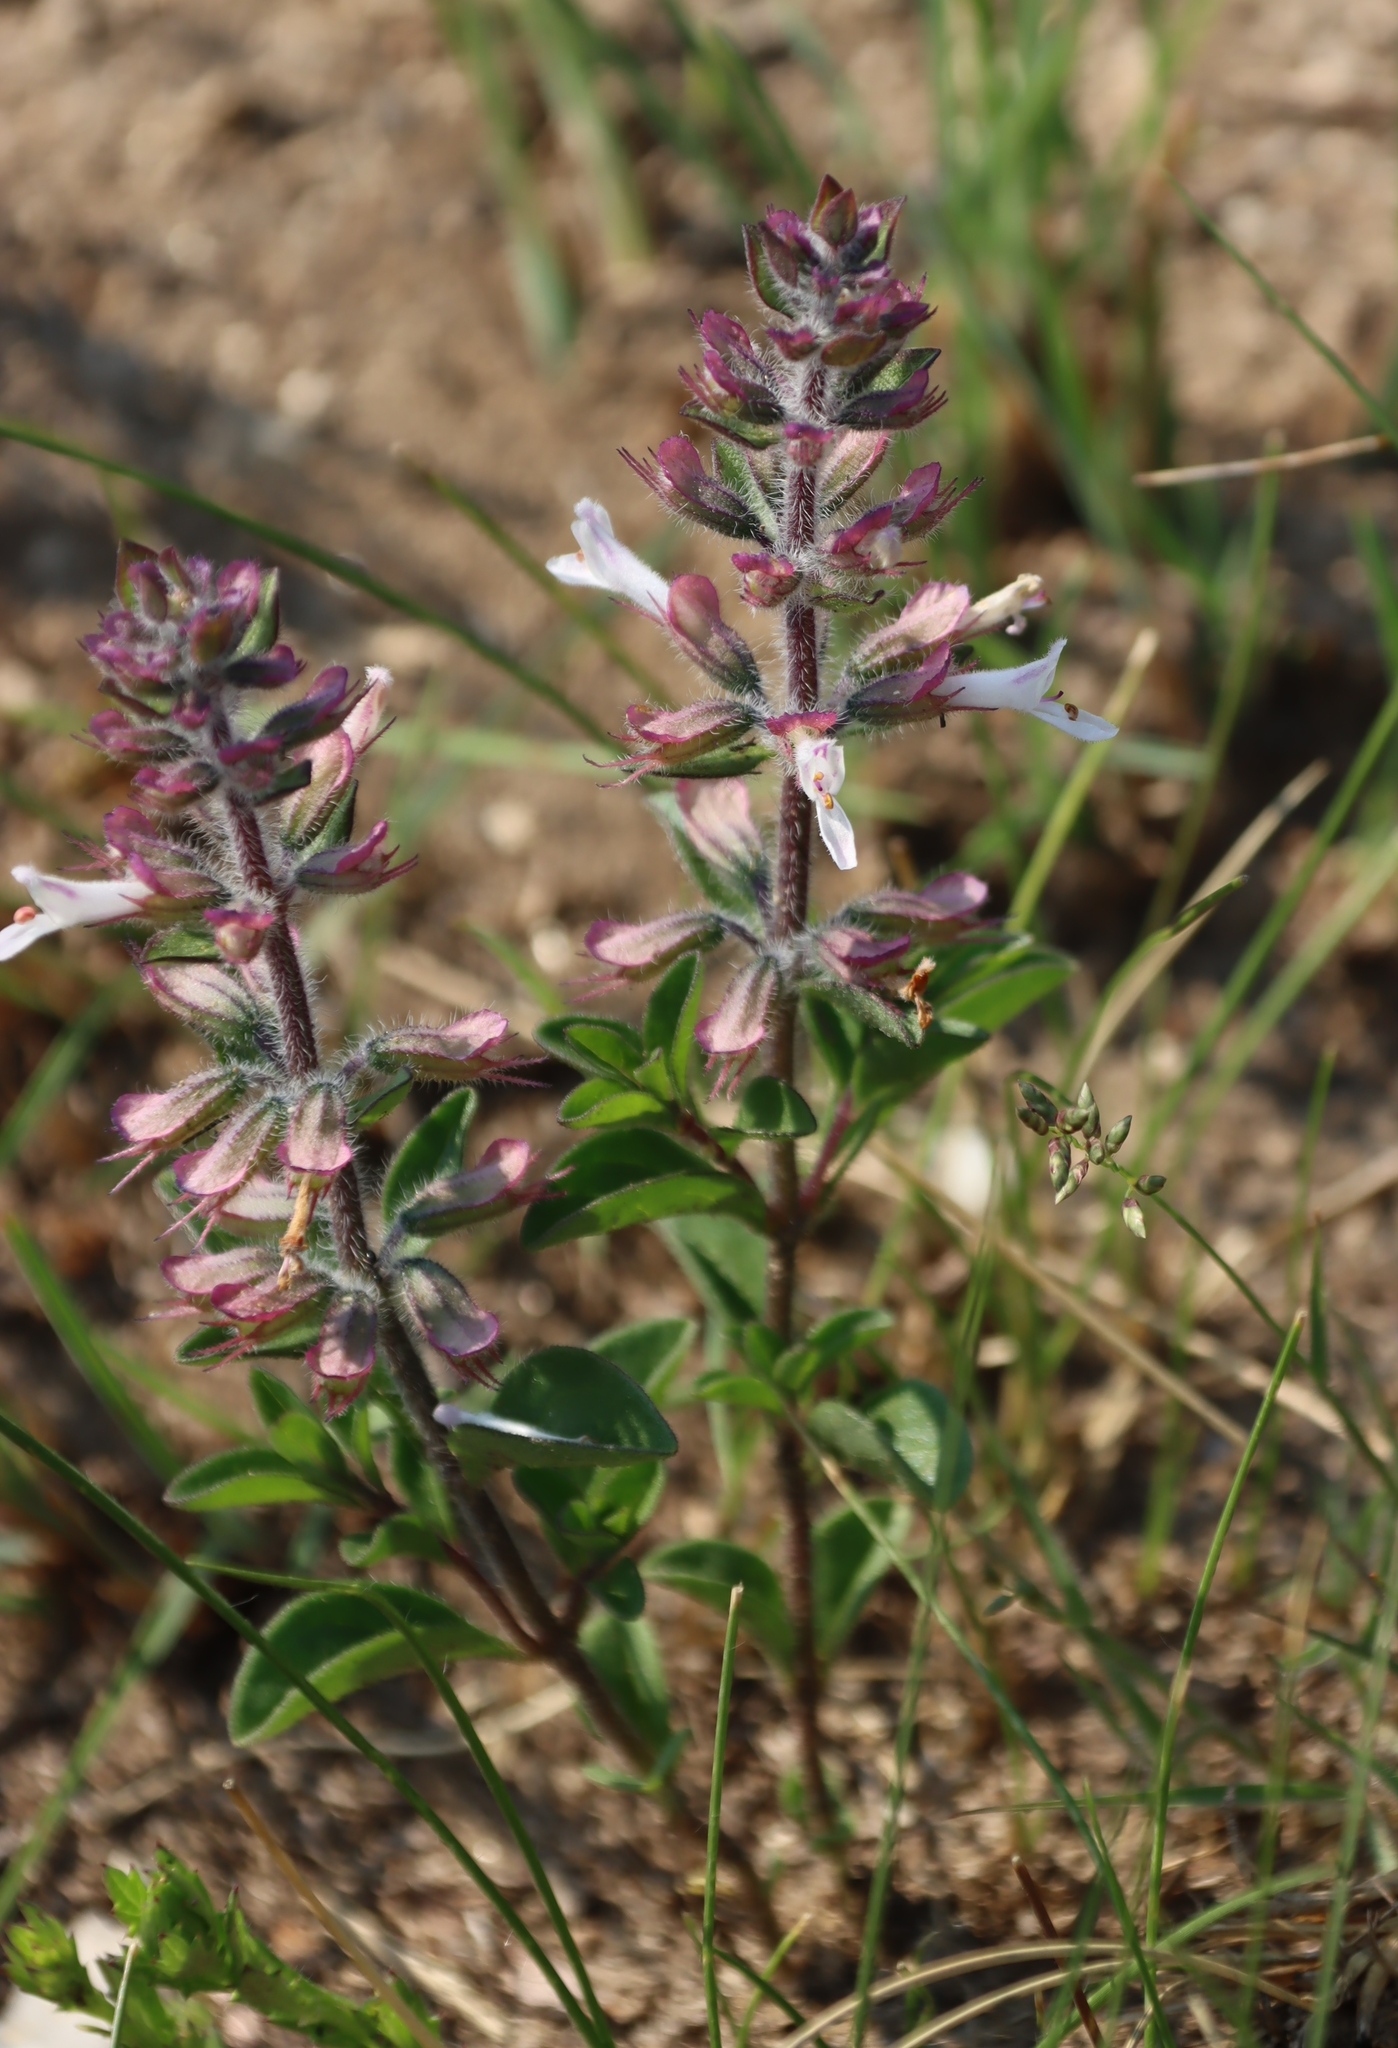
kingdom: Plantae
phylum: Tracheophyta
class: Magnoliopsida
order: Lamiales
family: Lamiaceae
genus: Syncolostemon
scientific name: Syncolostemon pretoriae
